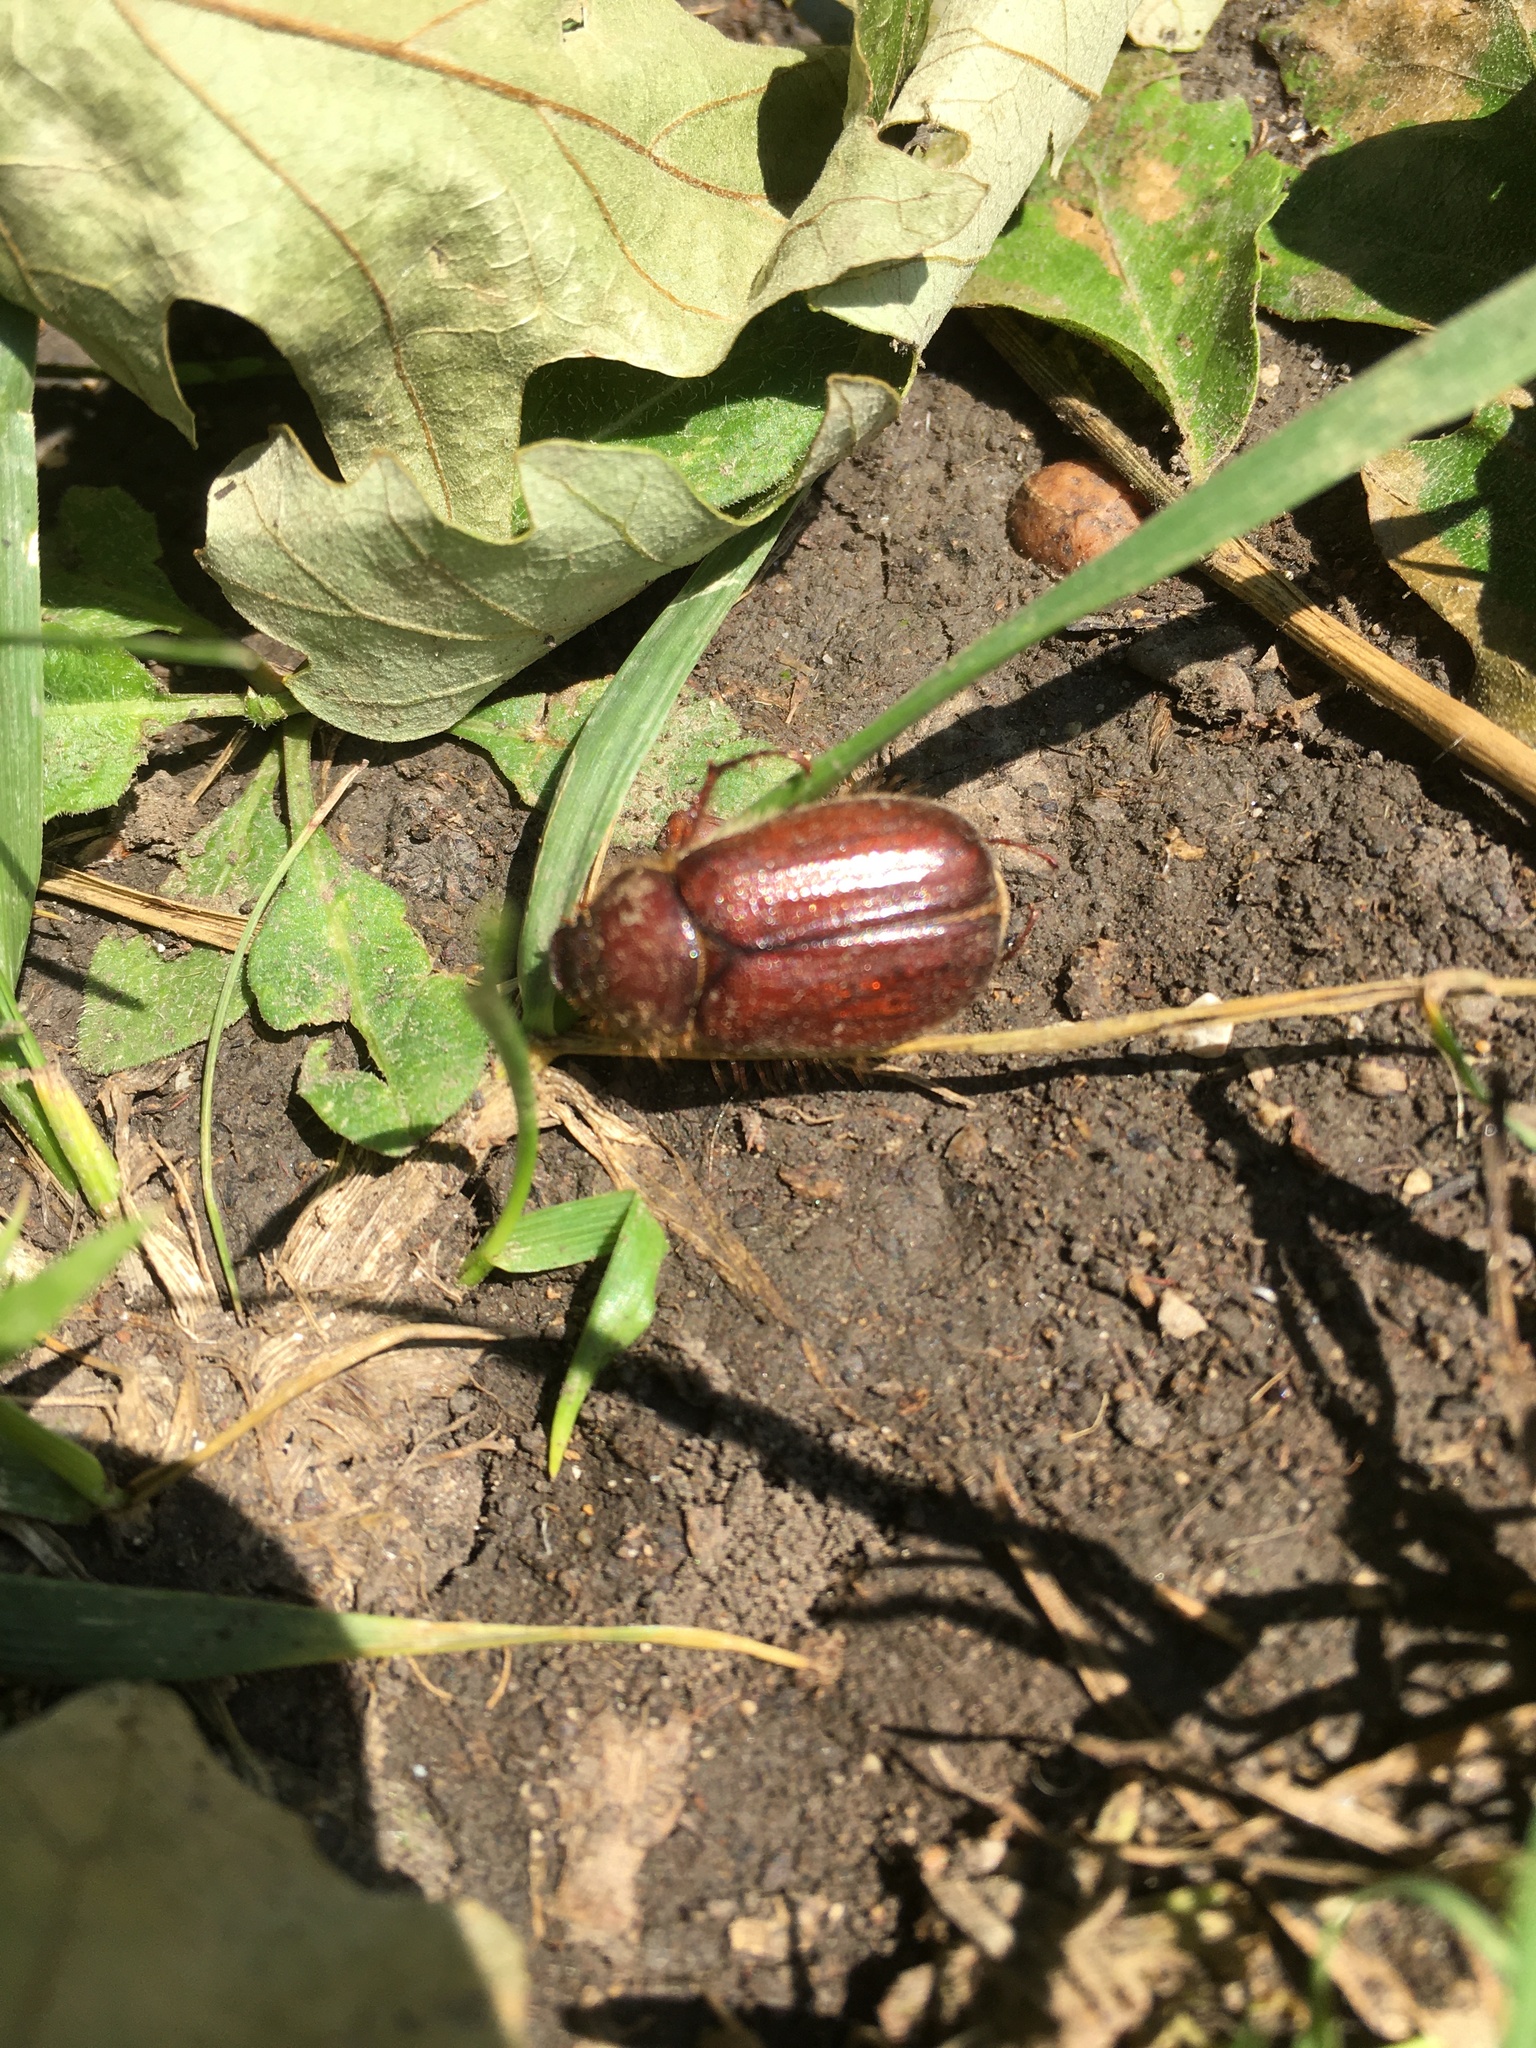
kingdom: Animalia
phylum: Arthropoda
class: Insecta
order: Coleoptera
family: Scarabaeidae
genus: Amphimallon
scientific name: Amphimallon solstitiale
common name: Summer chafer
